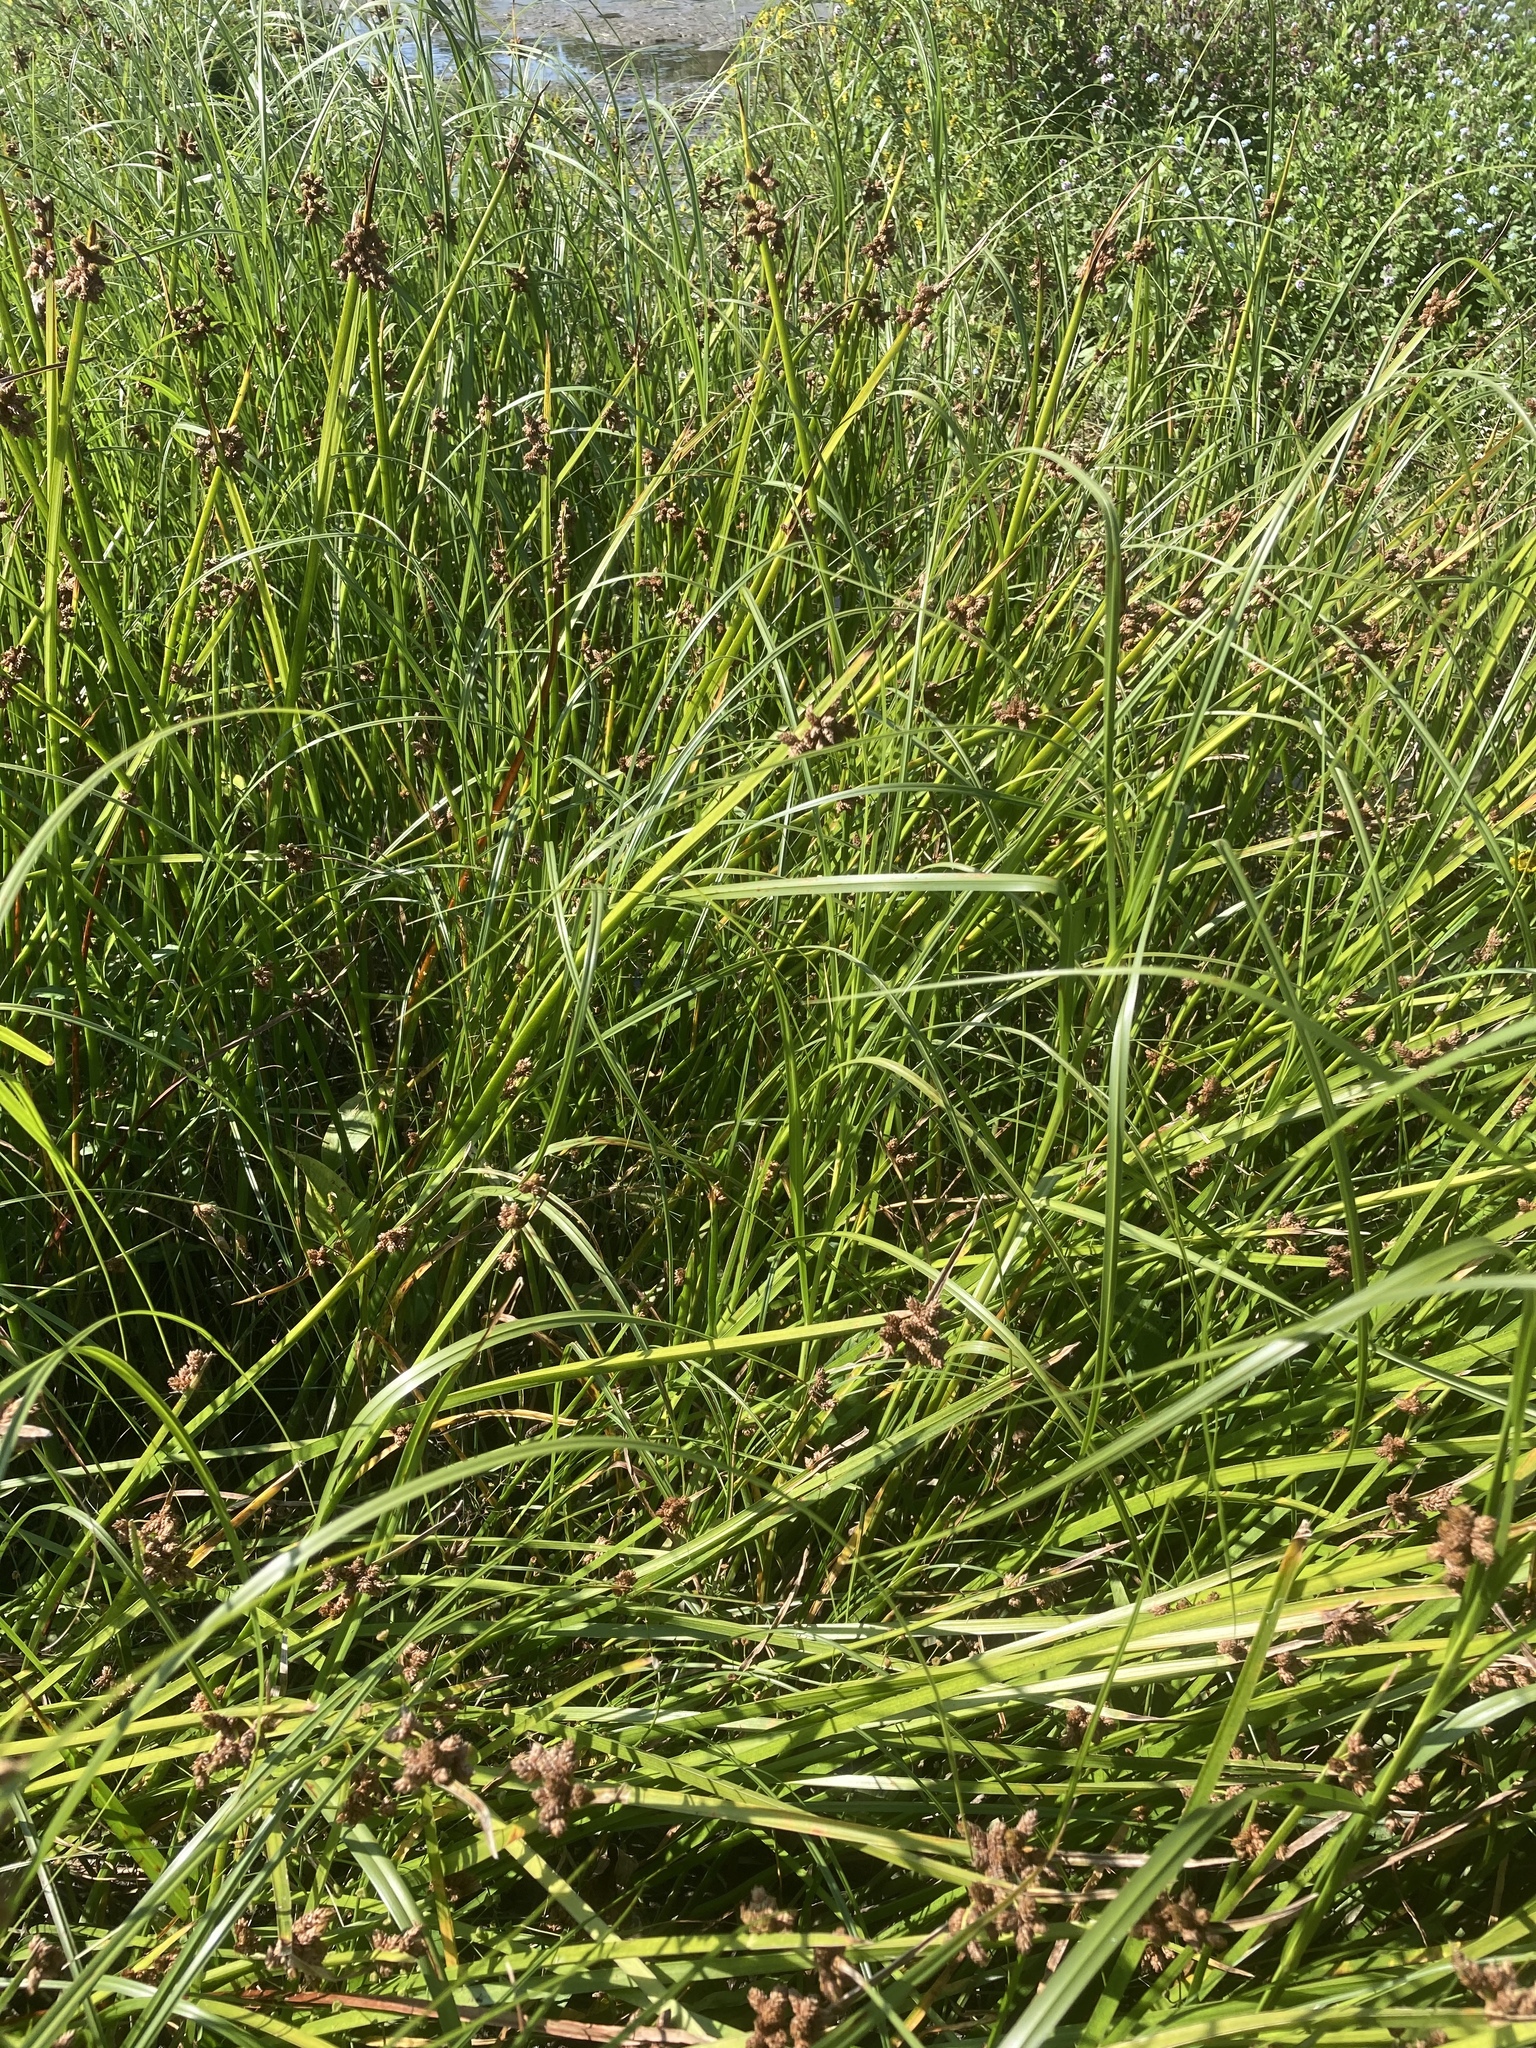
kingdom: Plantae
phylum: Tracheophyta
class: Liliopsida
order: Poales
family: Cyperaceae
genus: Schoenoplectus
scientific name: Schoenoplectus triqueter
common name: Triangular club-rush
